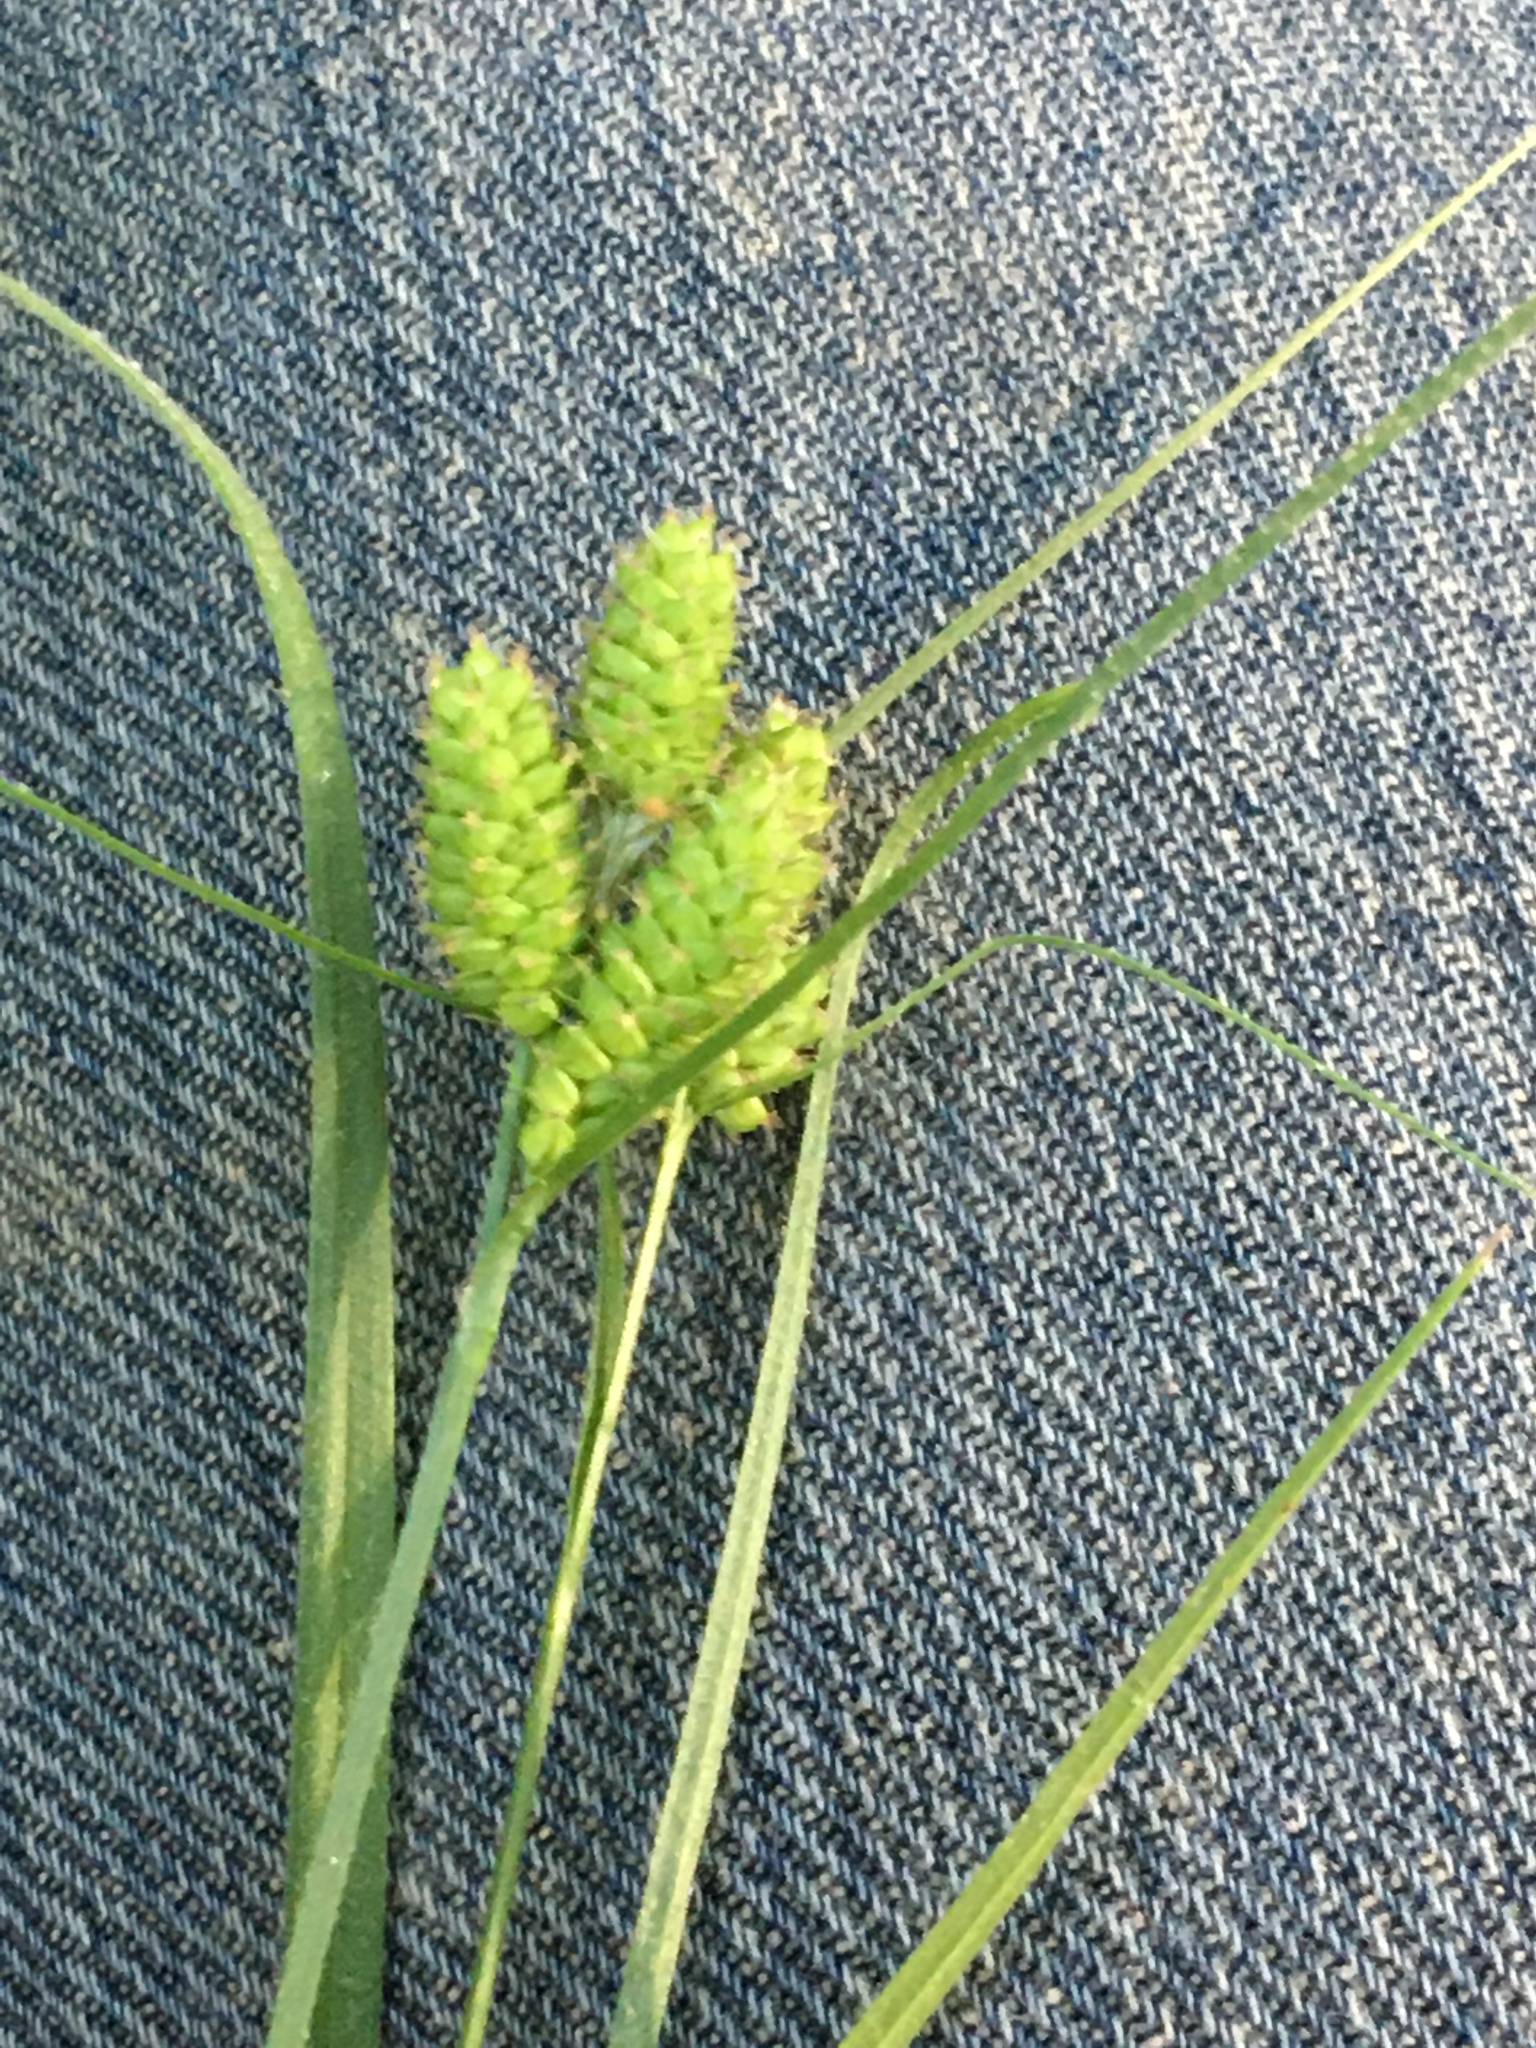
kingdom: Plantae
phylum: Tracheophyta
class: Liliopsida
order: Poales
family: Cyperaceae
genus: Carex
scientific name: Carex hirsutella
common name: Fuzzy wuzzy sedge
